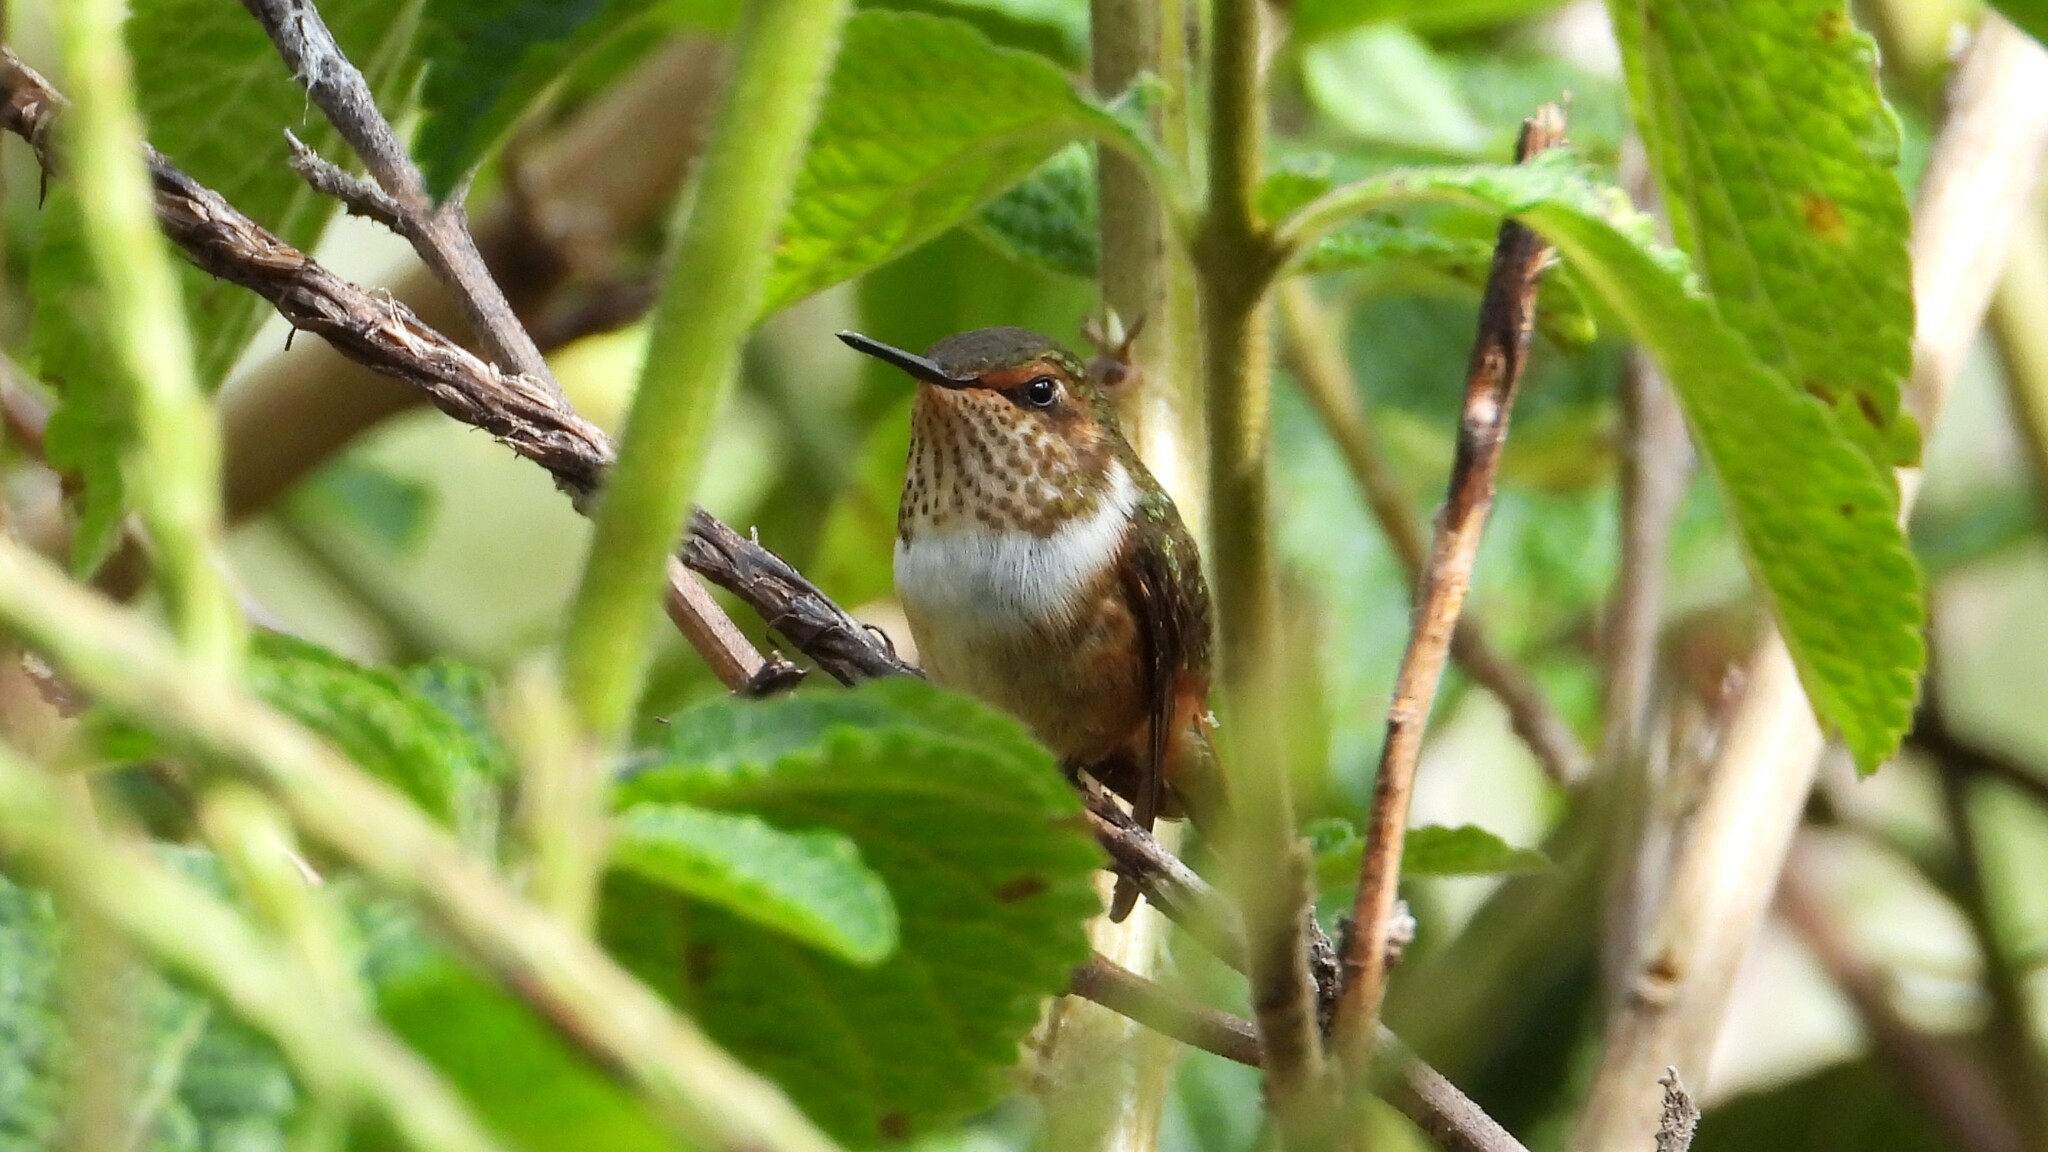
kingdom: Animalia
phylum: Chordata
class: Aves
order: Apodiformes
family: Trochilidae
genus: Selasphorus
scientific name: Selasphorus scintilla
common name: Scintillant hummingbird
